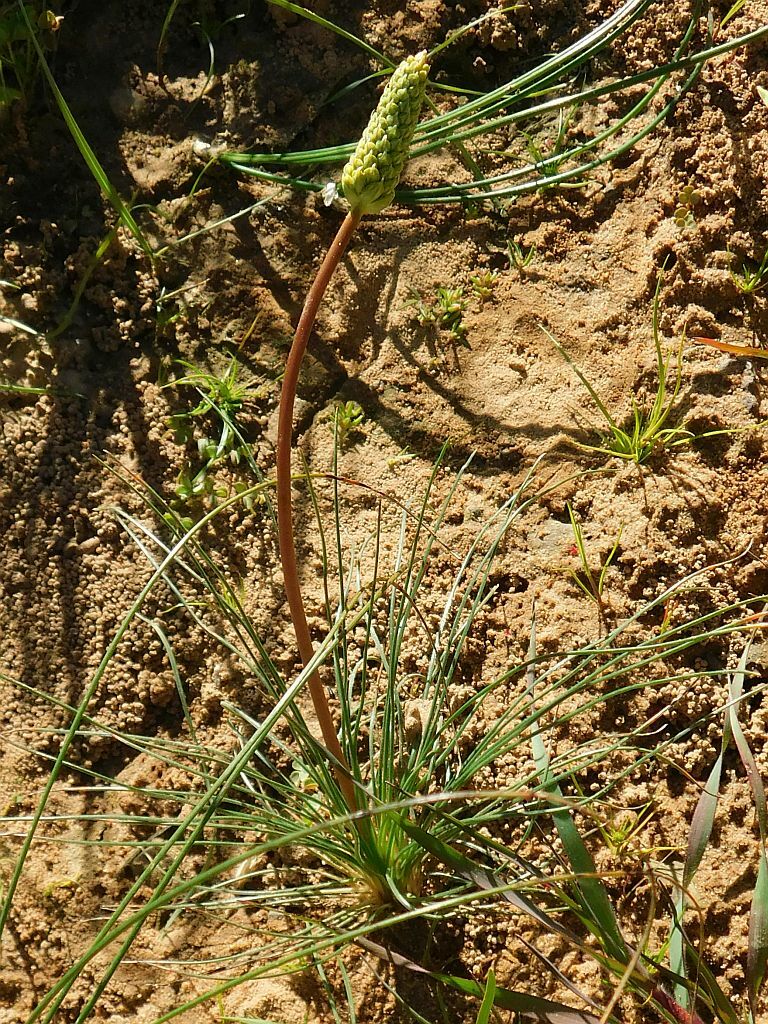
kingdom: Plantae
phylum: Tracheophyta
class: Liliopsida
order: Asparagales
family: Asparagaceae
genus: Drimia
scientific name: Drimia exuviata
